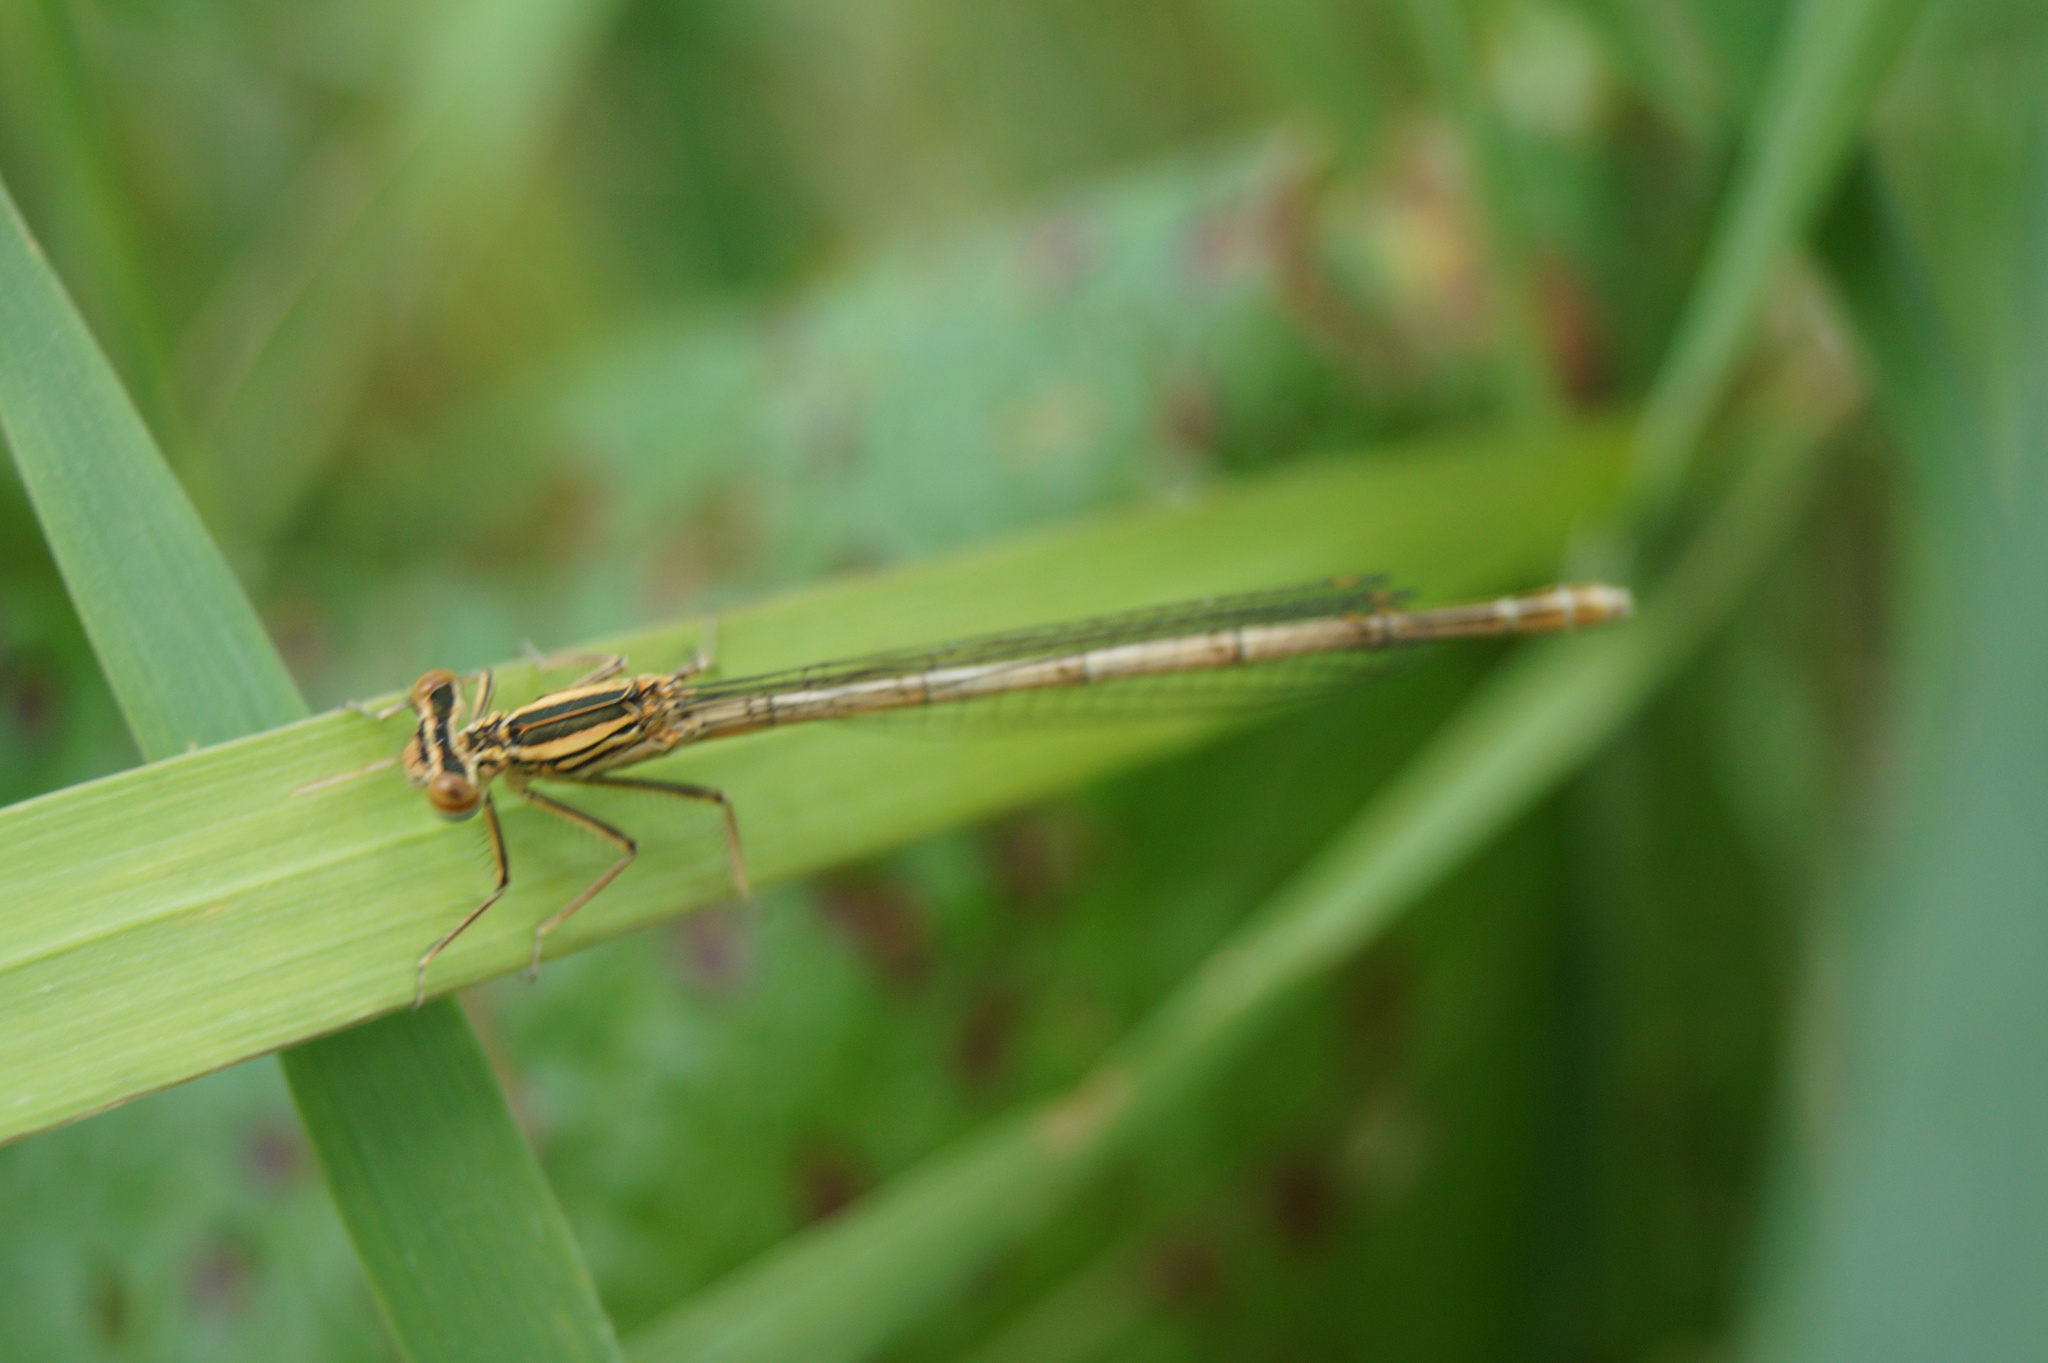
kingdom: Animalia
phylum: Arthropoda
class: Insecta
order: Odonata
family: Platycnemididae
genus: Platycnemis
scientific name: Platycnemis pennipes
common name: White-legged damselfly
